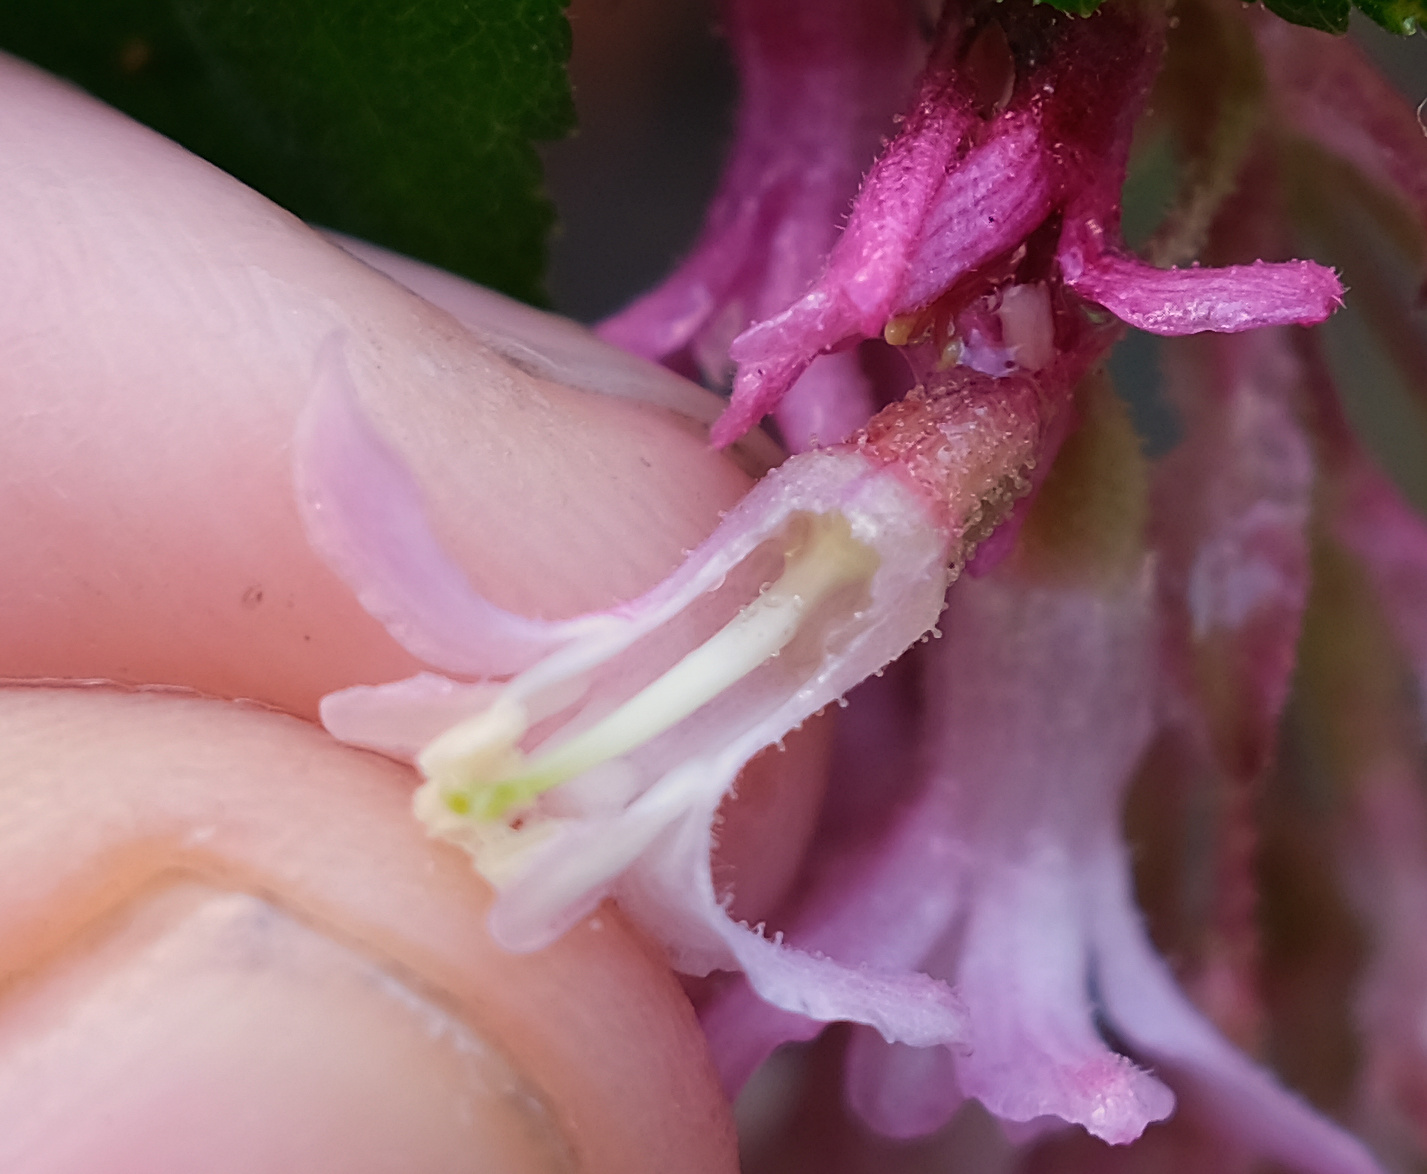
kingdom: Plantae
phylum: Tracheophyta
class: Magnoliopsida
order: Saxifragales
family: Grossulariaceae
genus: Ribes
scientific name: Ribes sanguineum
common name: Flowering currant
